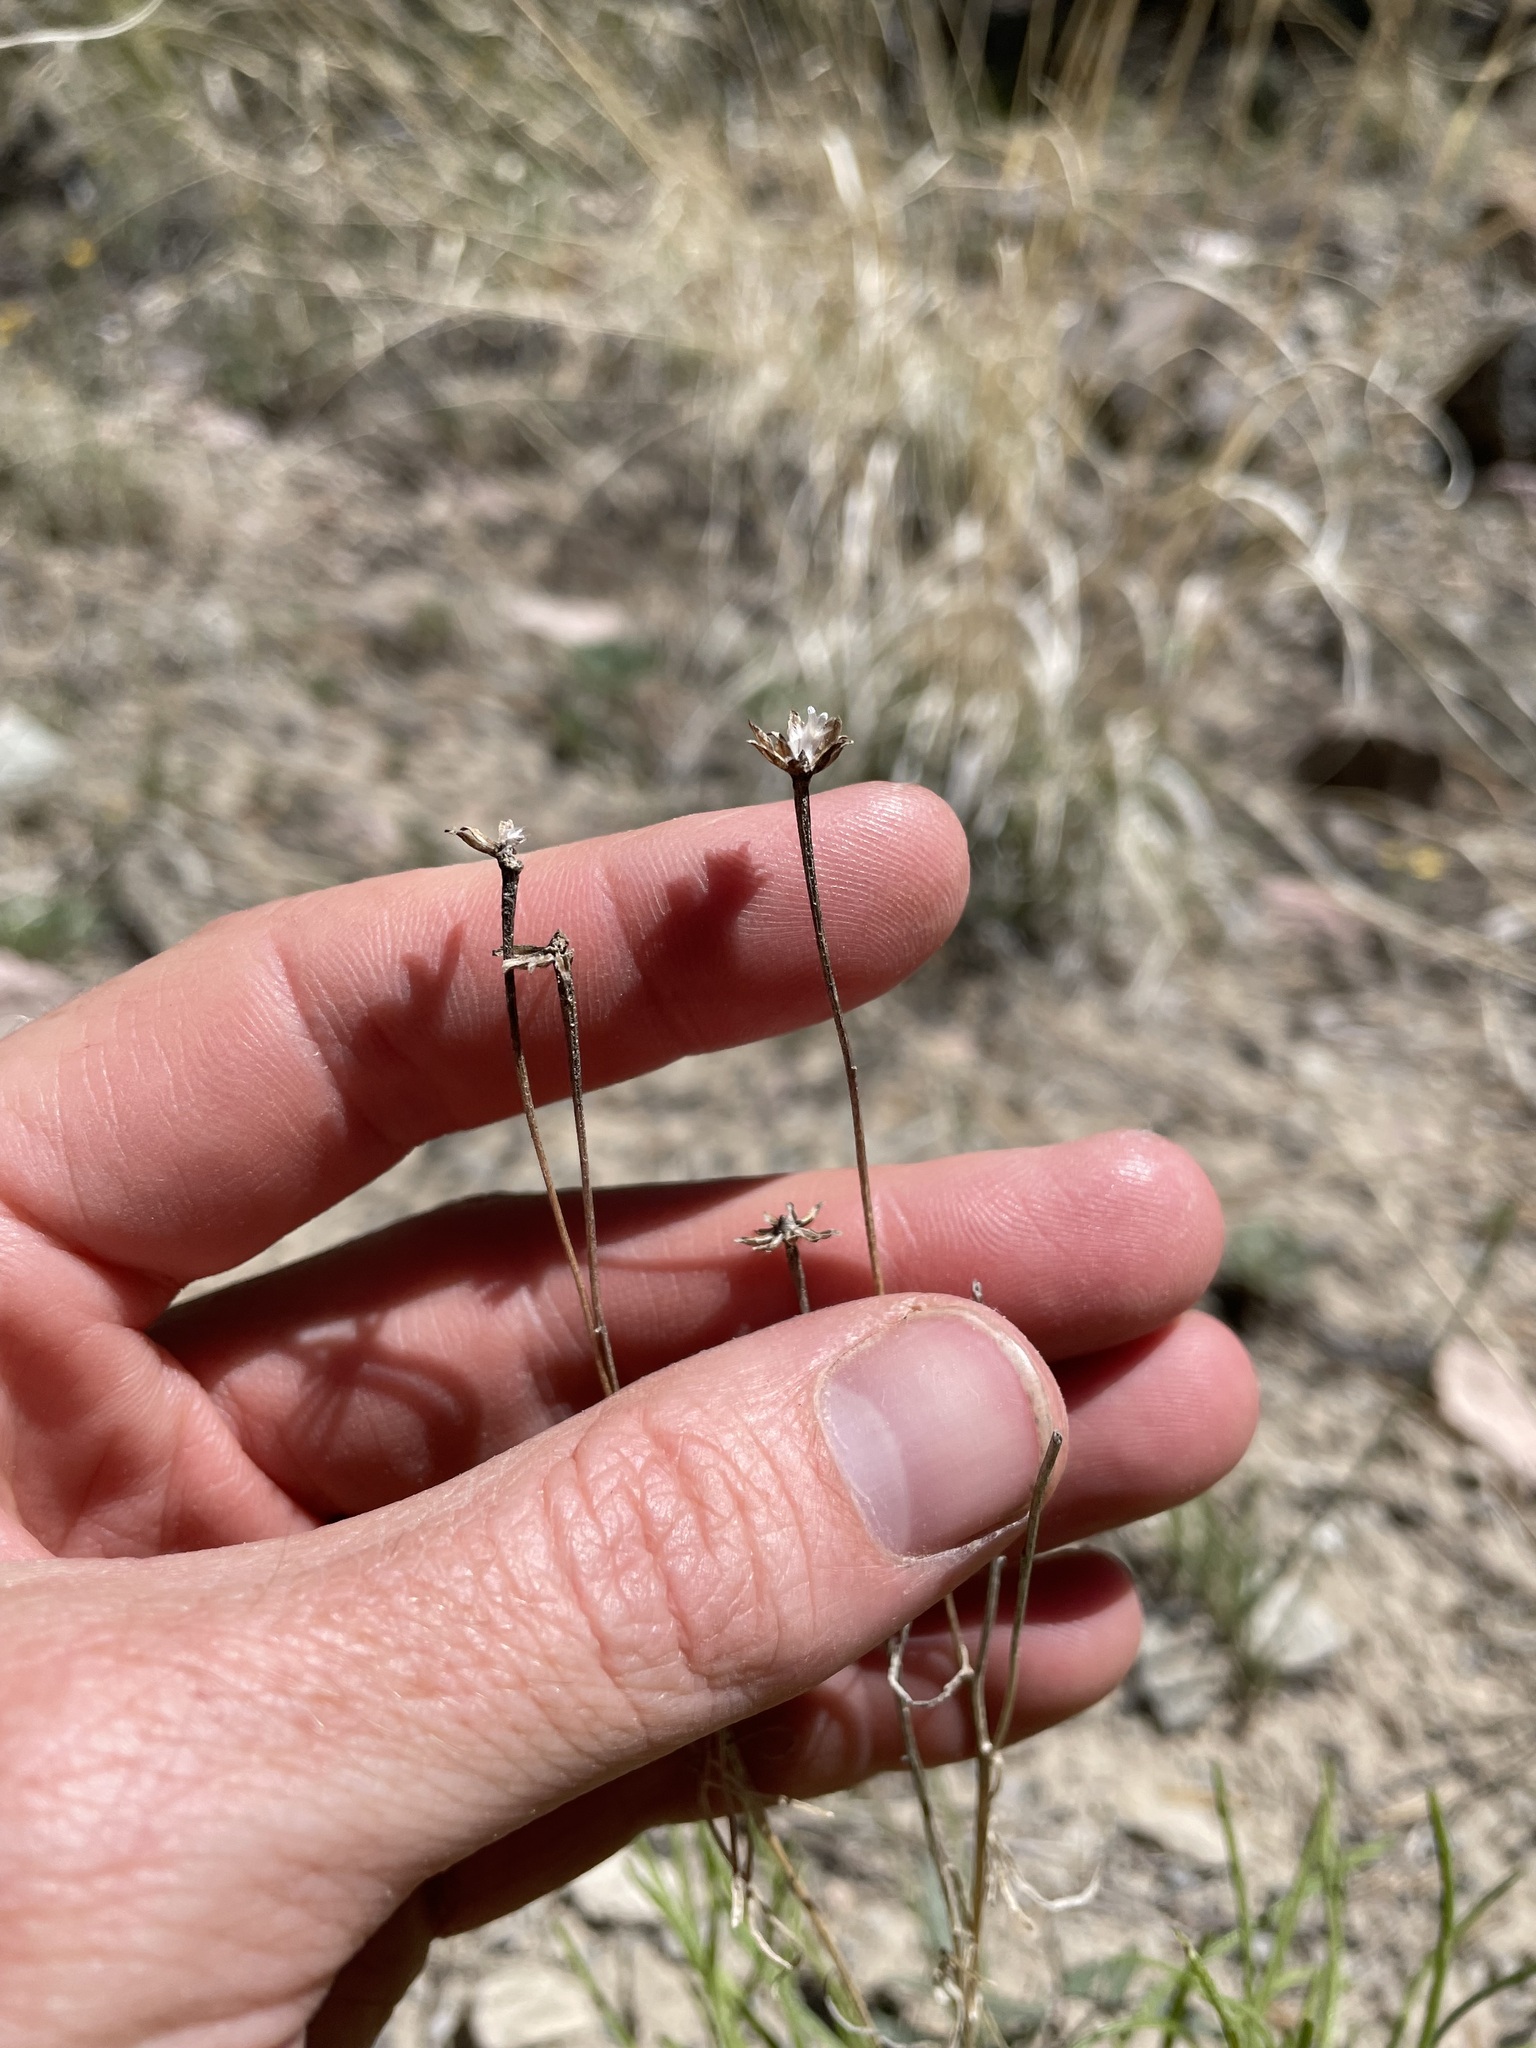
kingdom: Plantae
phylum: Tracheophyta
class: Magnoliopsida
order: Asterales
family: Asteraceae
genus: Hymenoxys
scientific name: Hymenoxys richardsonii
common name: Pingue rubberweed
